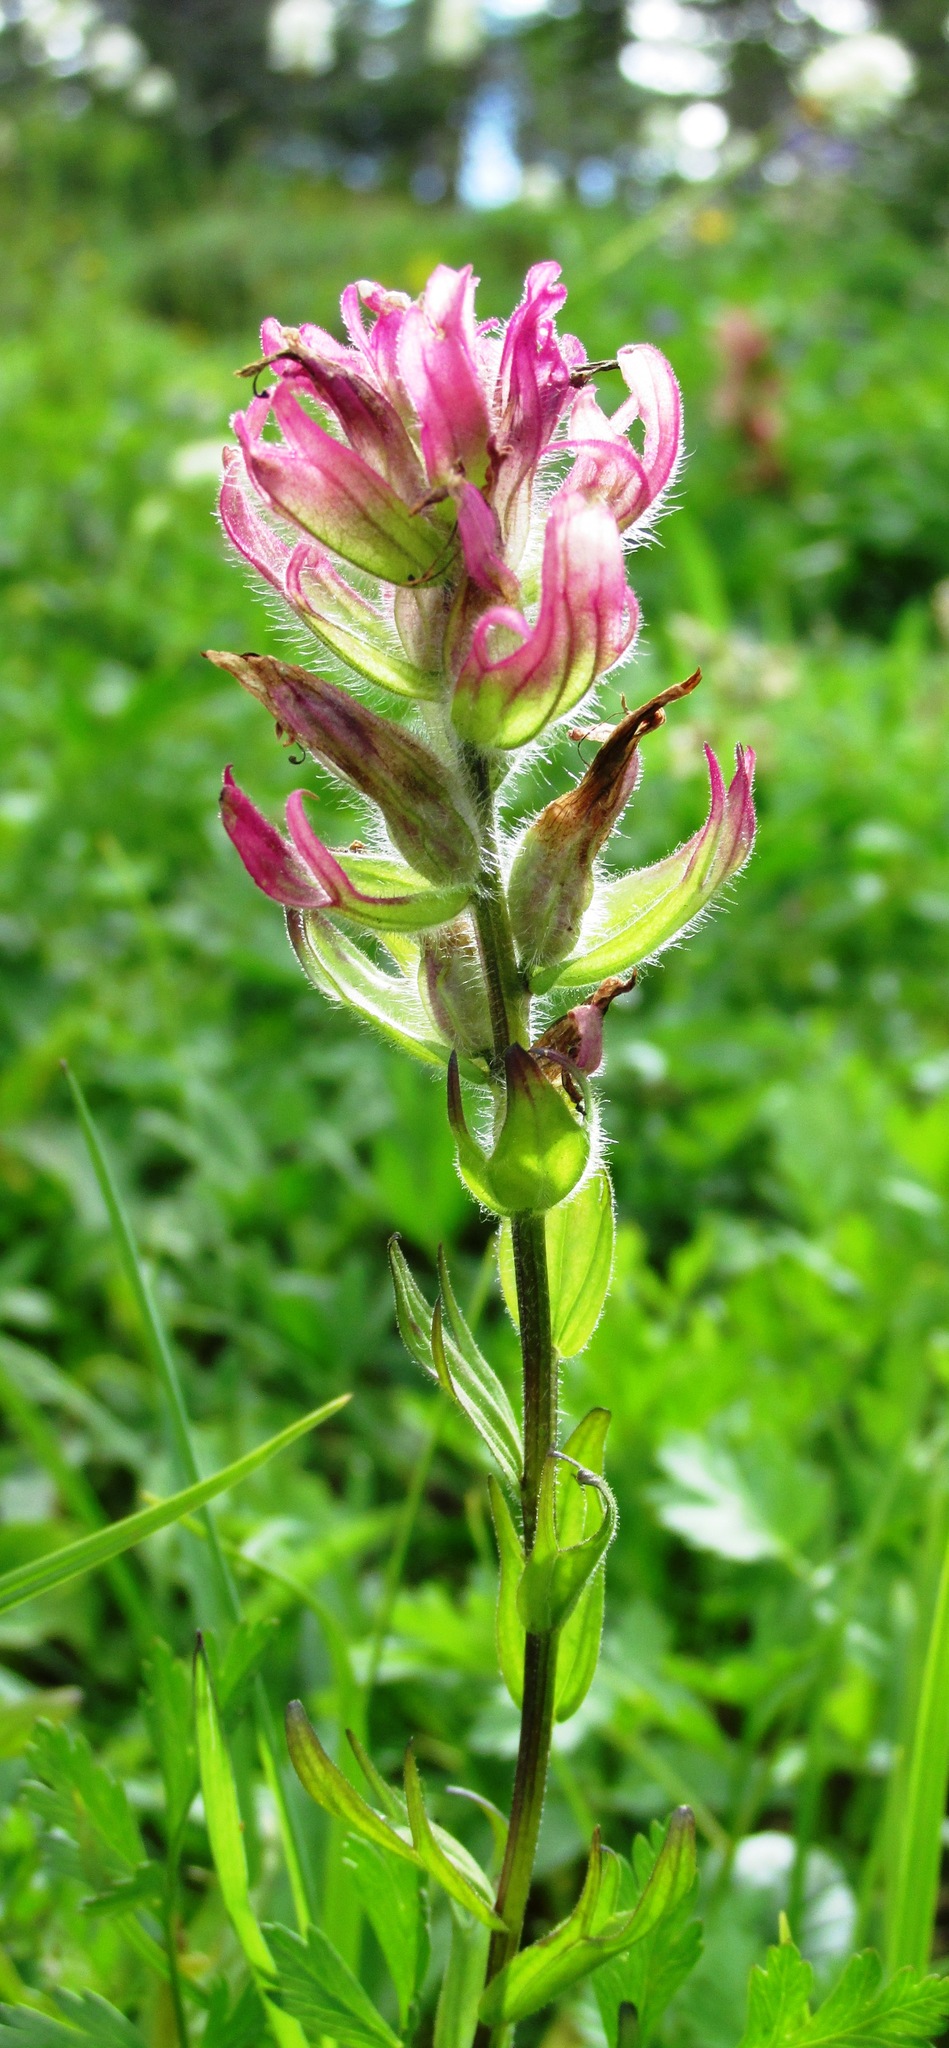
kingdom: Plantae
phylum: Tracheophyta
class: Magnoliopsida
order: Lamiales
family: Orobanchaceae
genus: Castilleja
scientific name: Castilleja parviflora
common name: Mountain paintbrush
